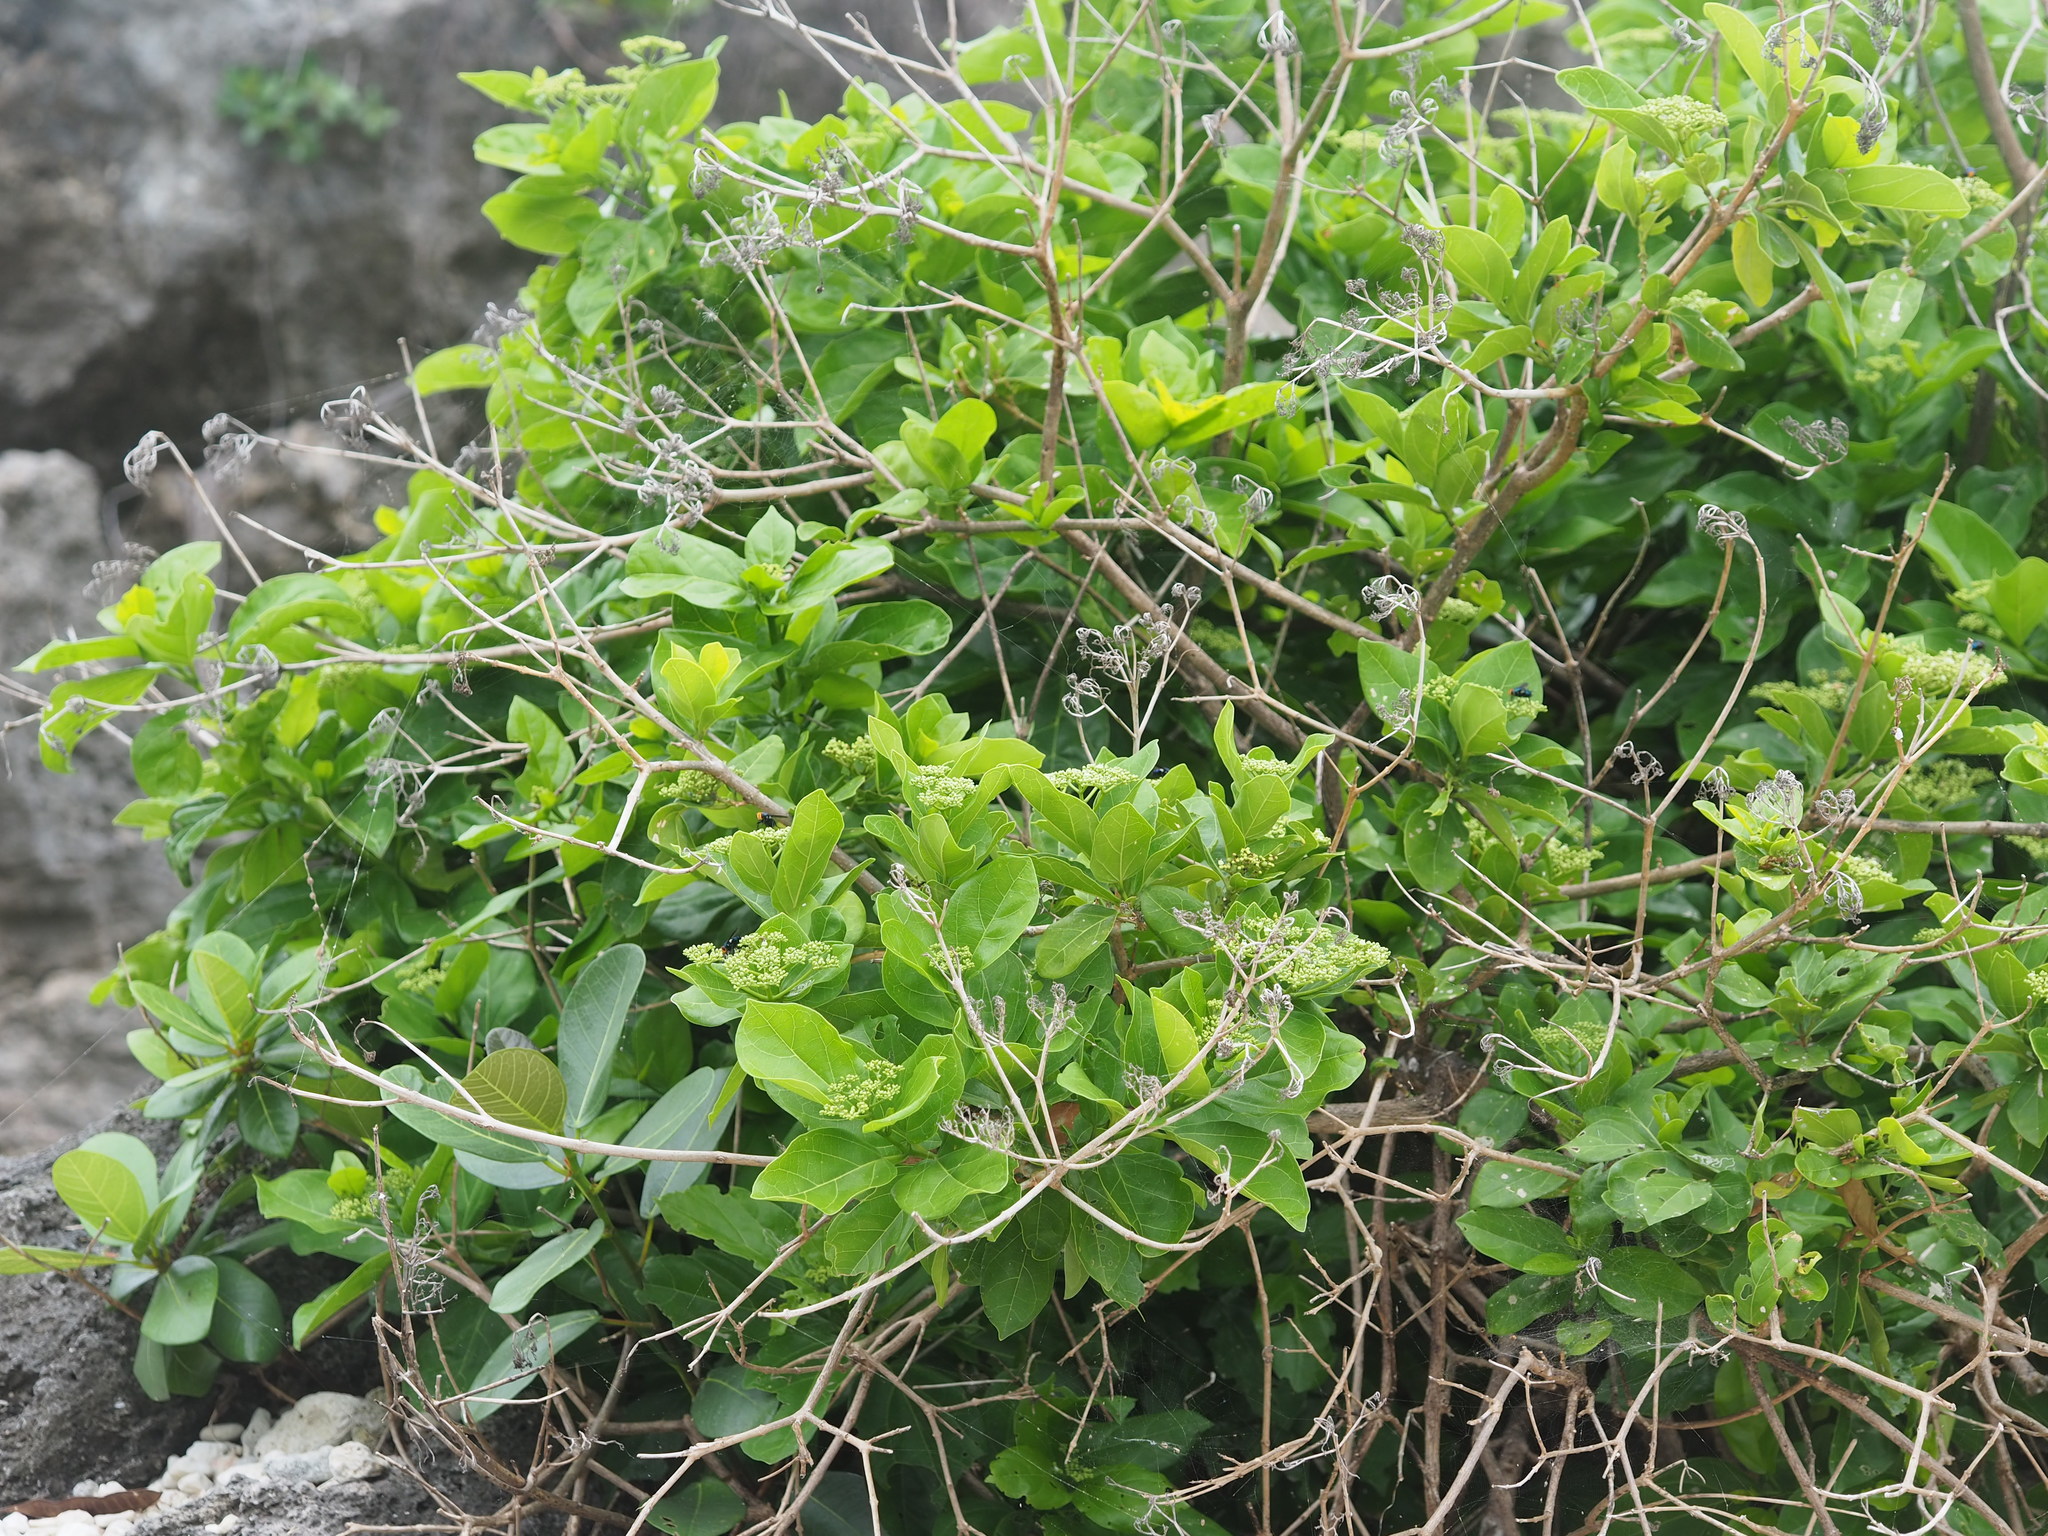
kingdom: Plantae
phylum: Tracheophyta
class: Magnoliopsida
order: Lamiales
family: Lamiaceae
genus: Premna
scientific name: Premna serratifolia
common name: Bastard guelder
